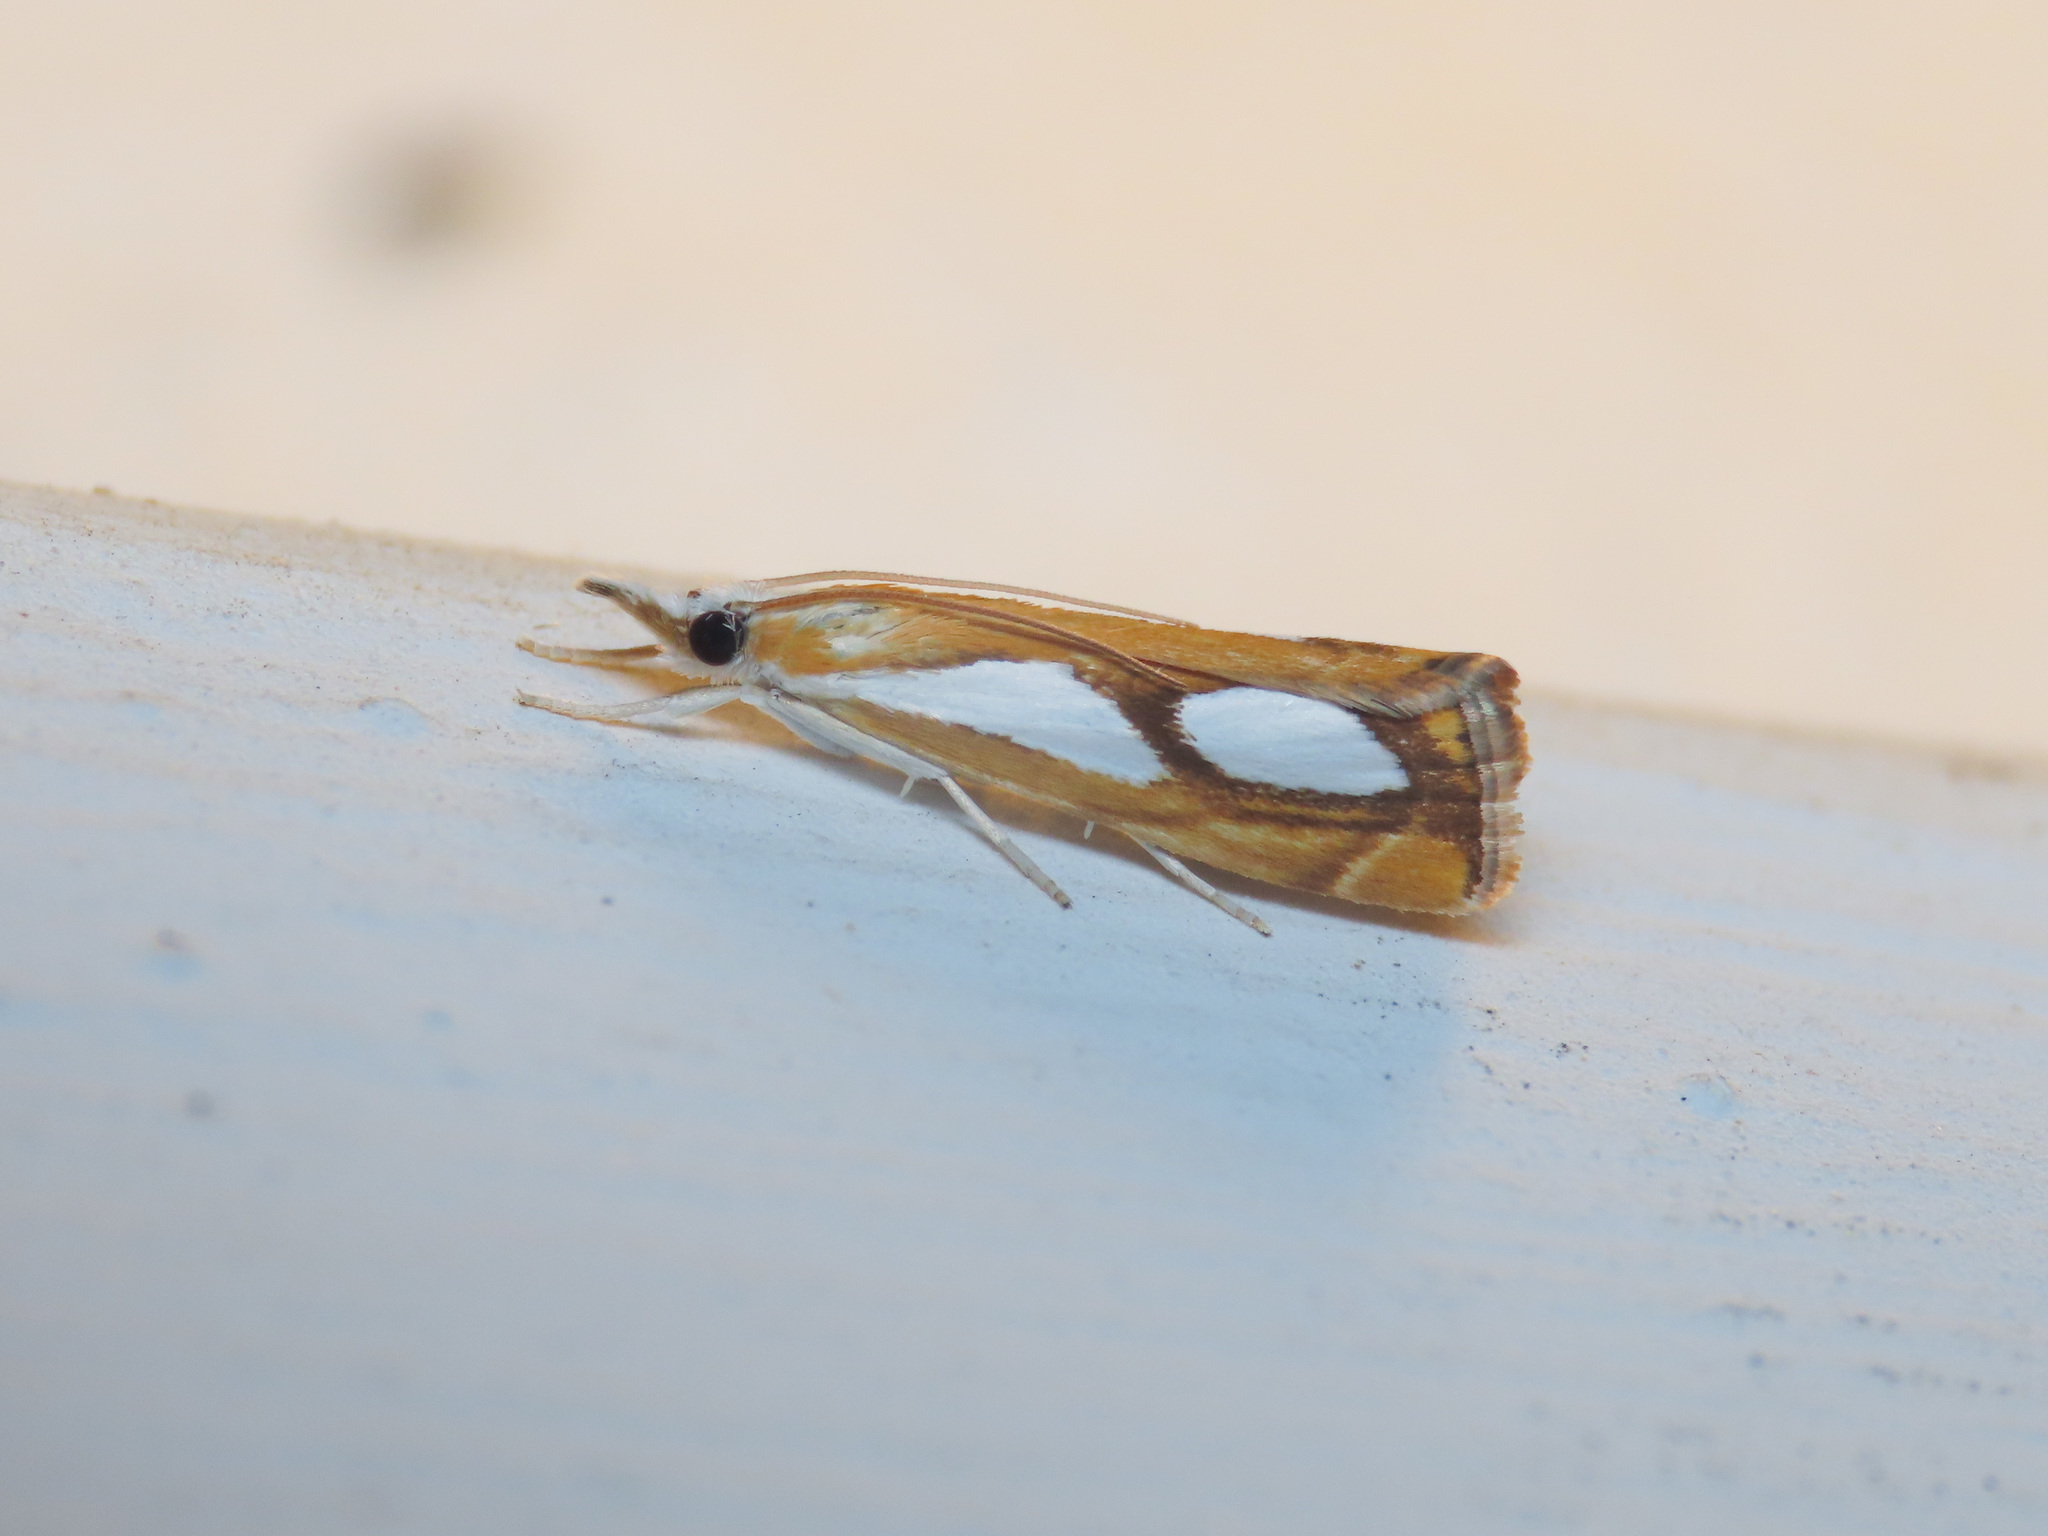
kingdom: Animalia
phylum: Arthropoda
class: Insecta
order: Lepidoptera
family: Crambidae
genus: Catoptria
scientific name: Catoptria pinella
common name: Pearl grass-veneer
